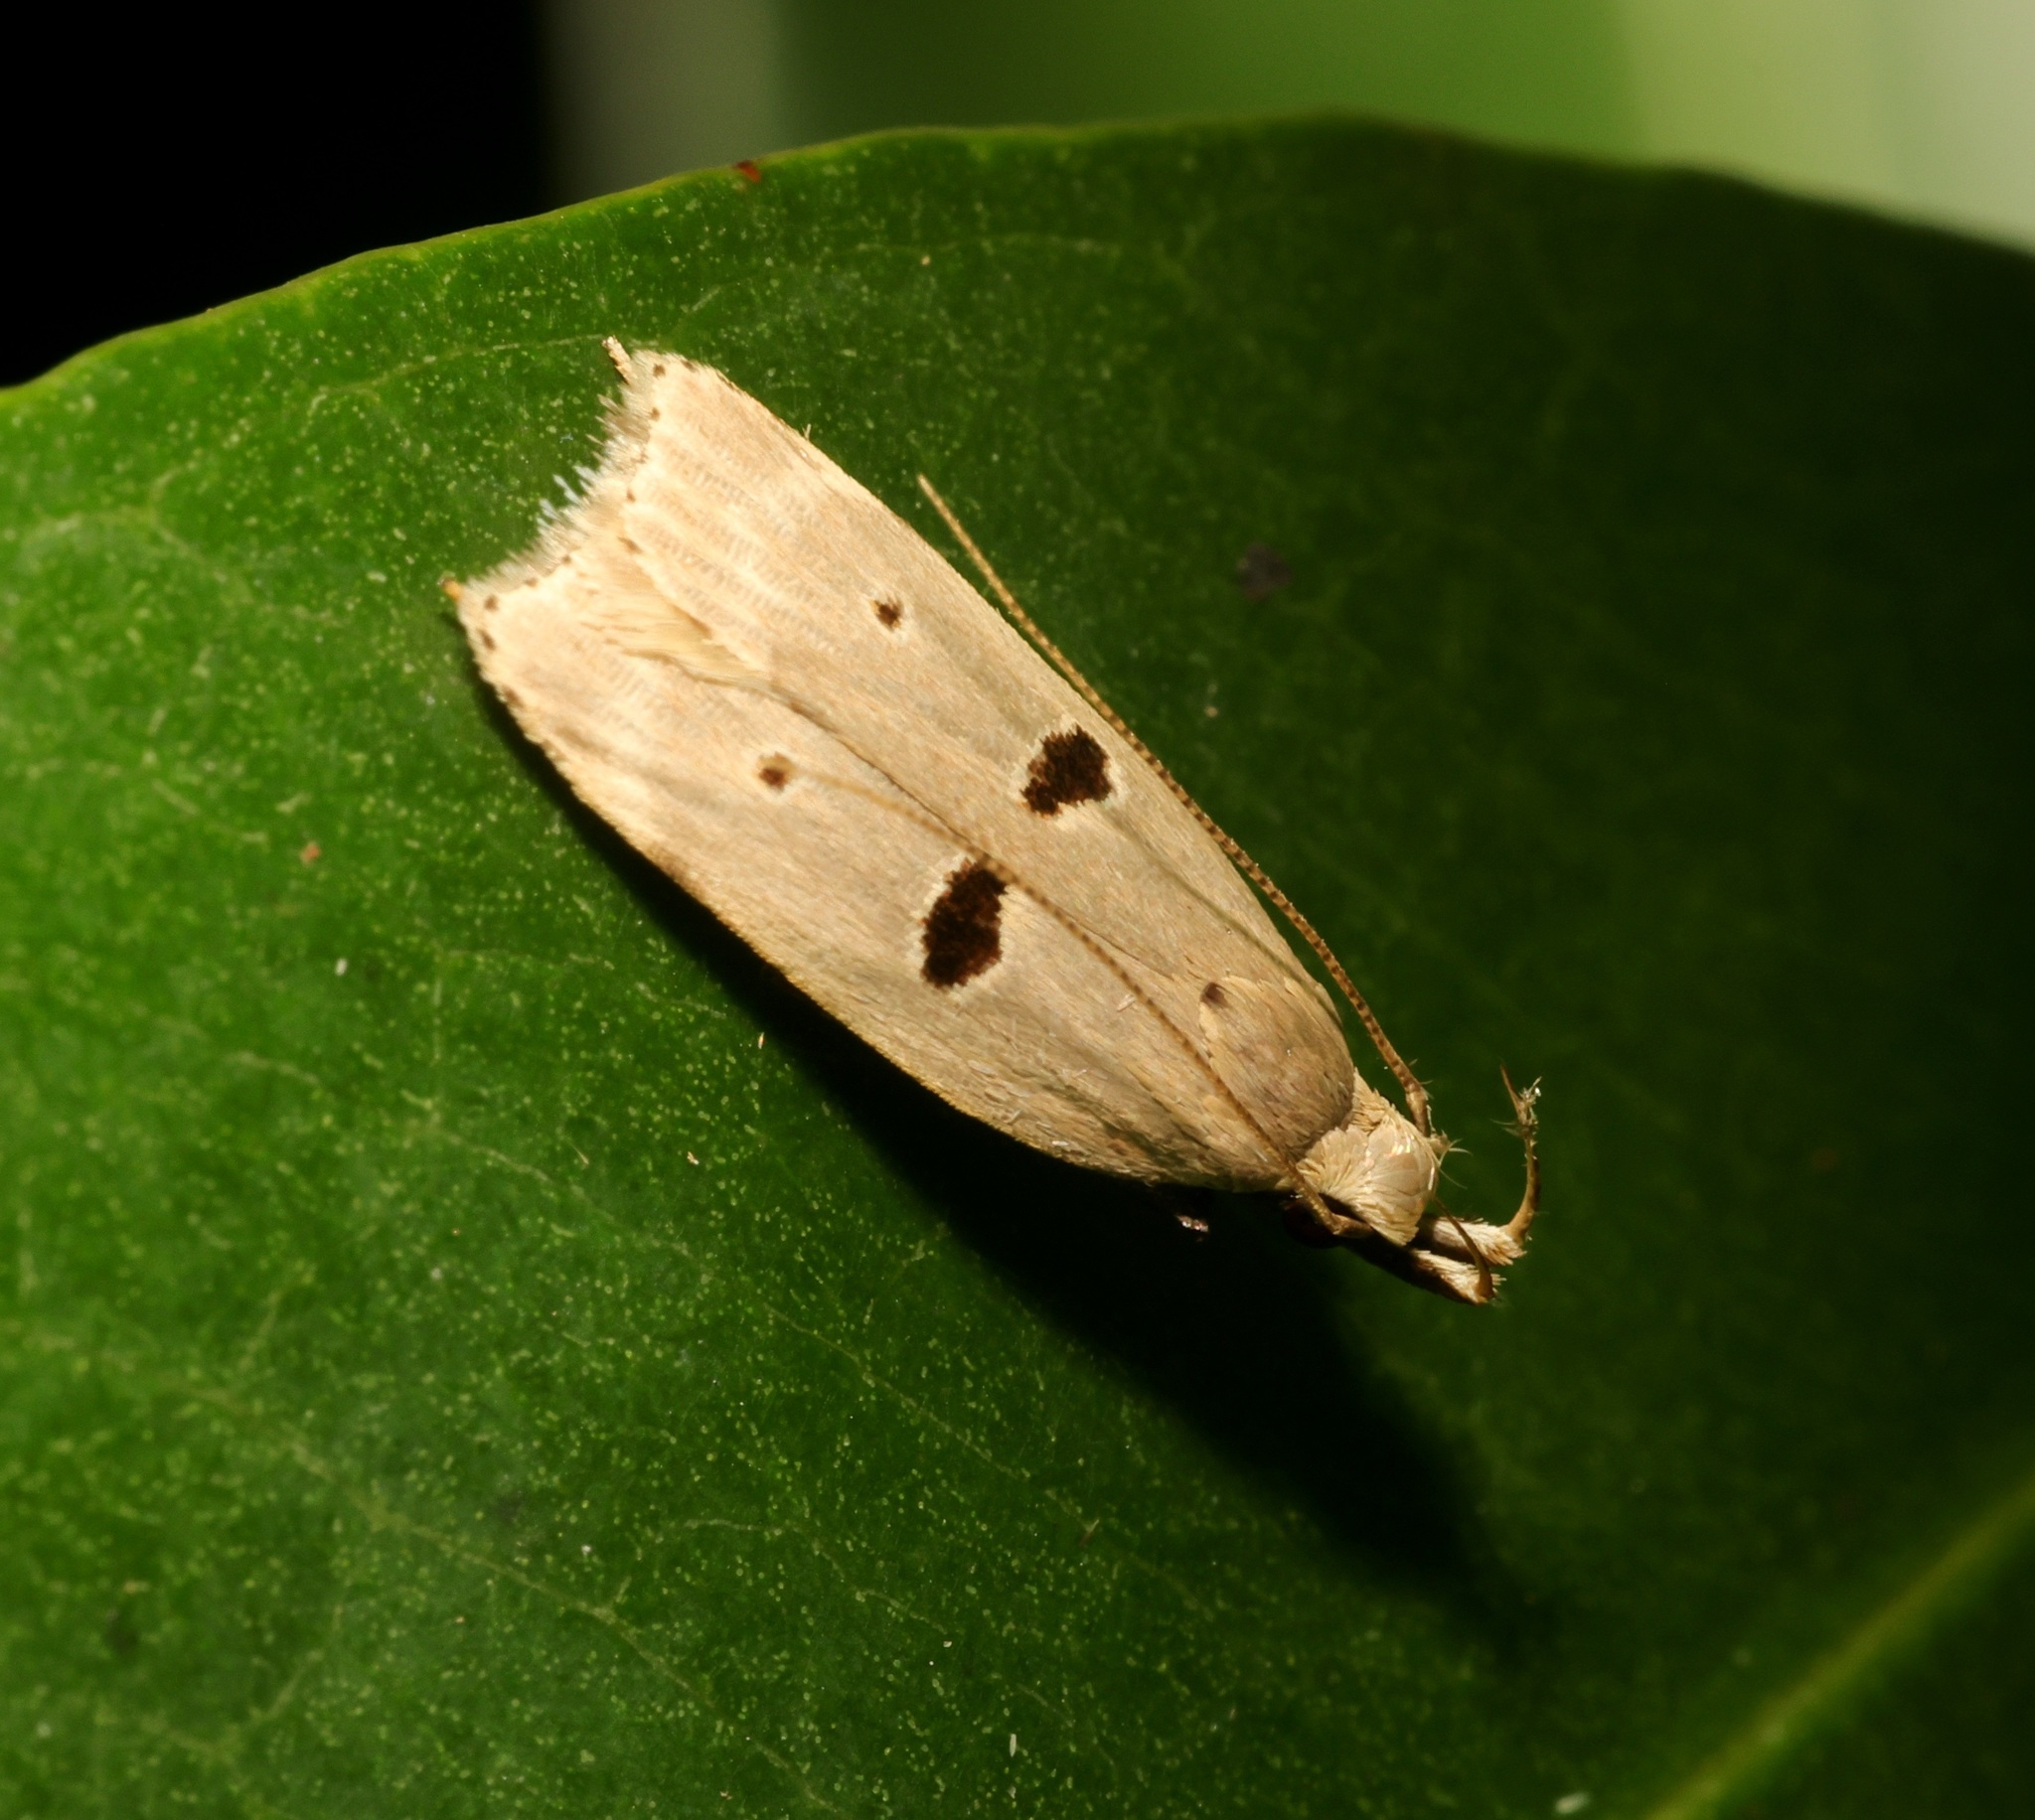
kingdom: Animalia
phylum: Arthropoda
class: Insecta
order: Lepidoptera
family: Gelechiidae
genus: Dichomeris
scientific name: Dichomeris loxospila
